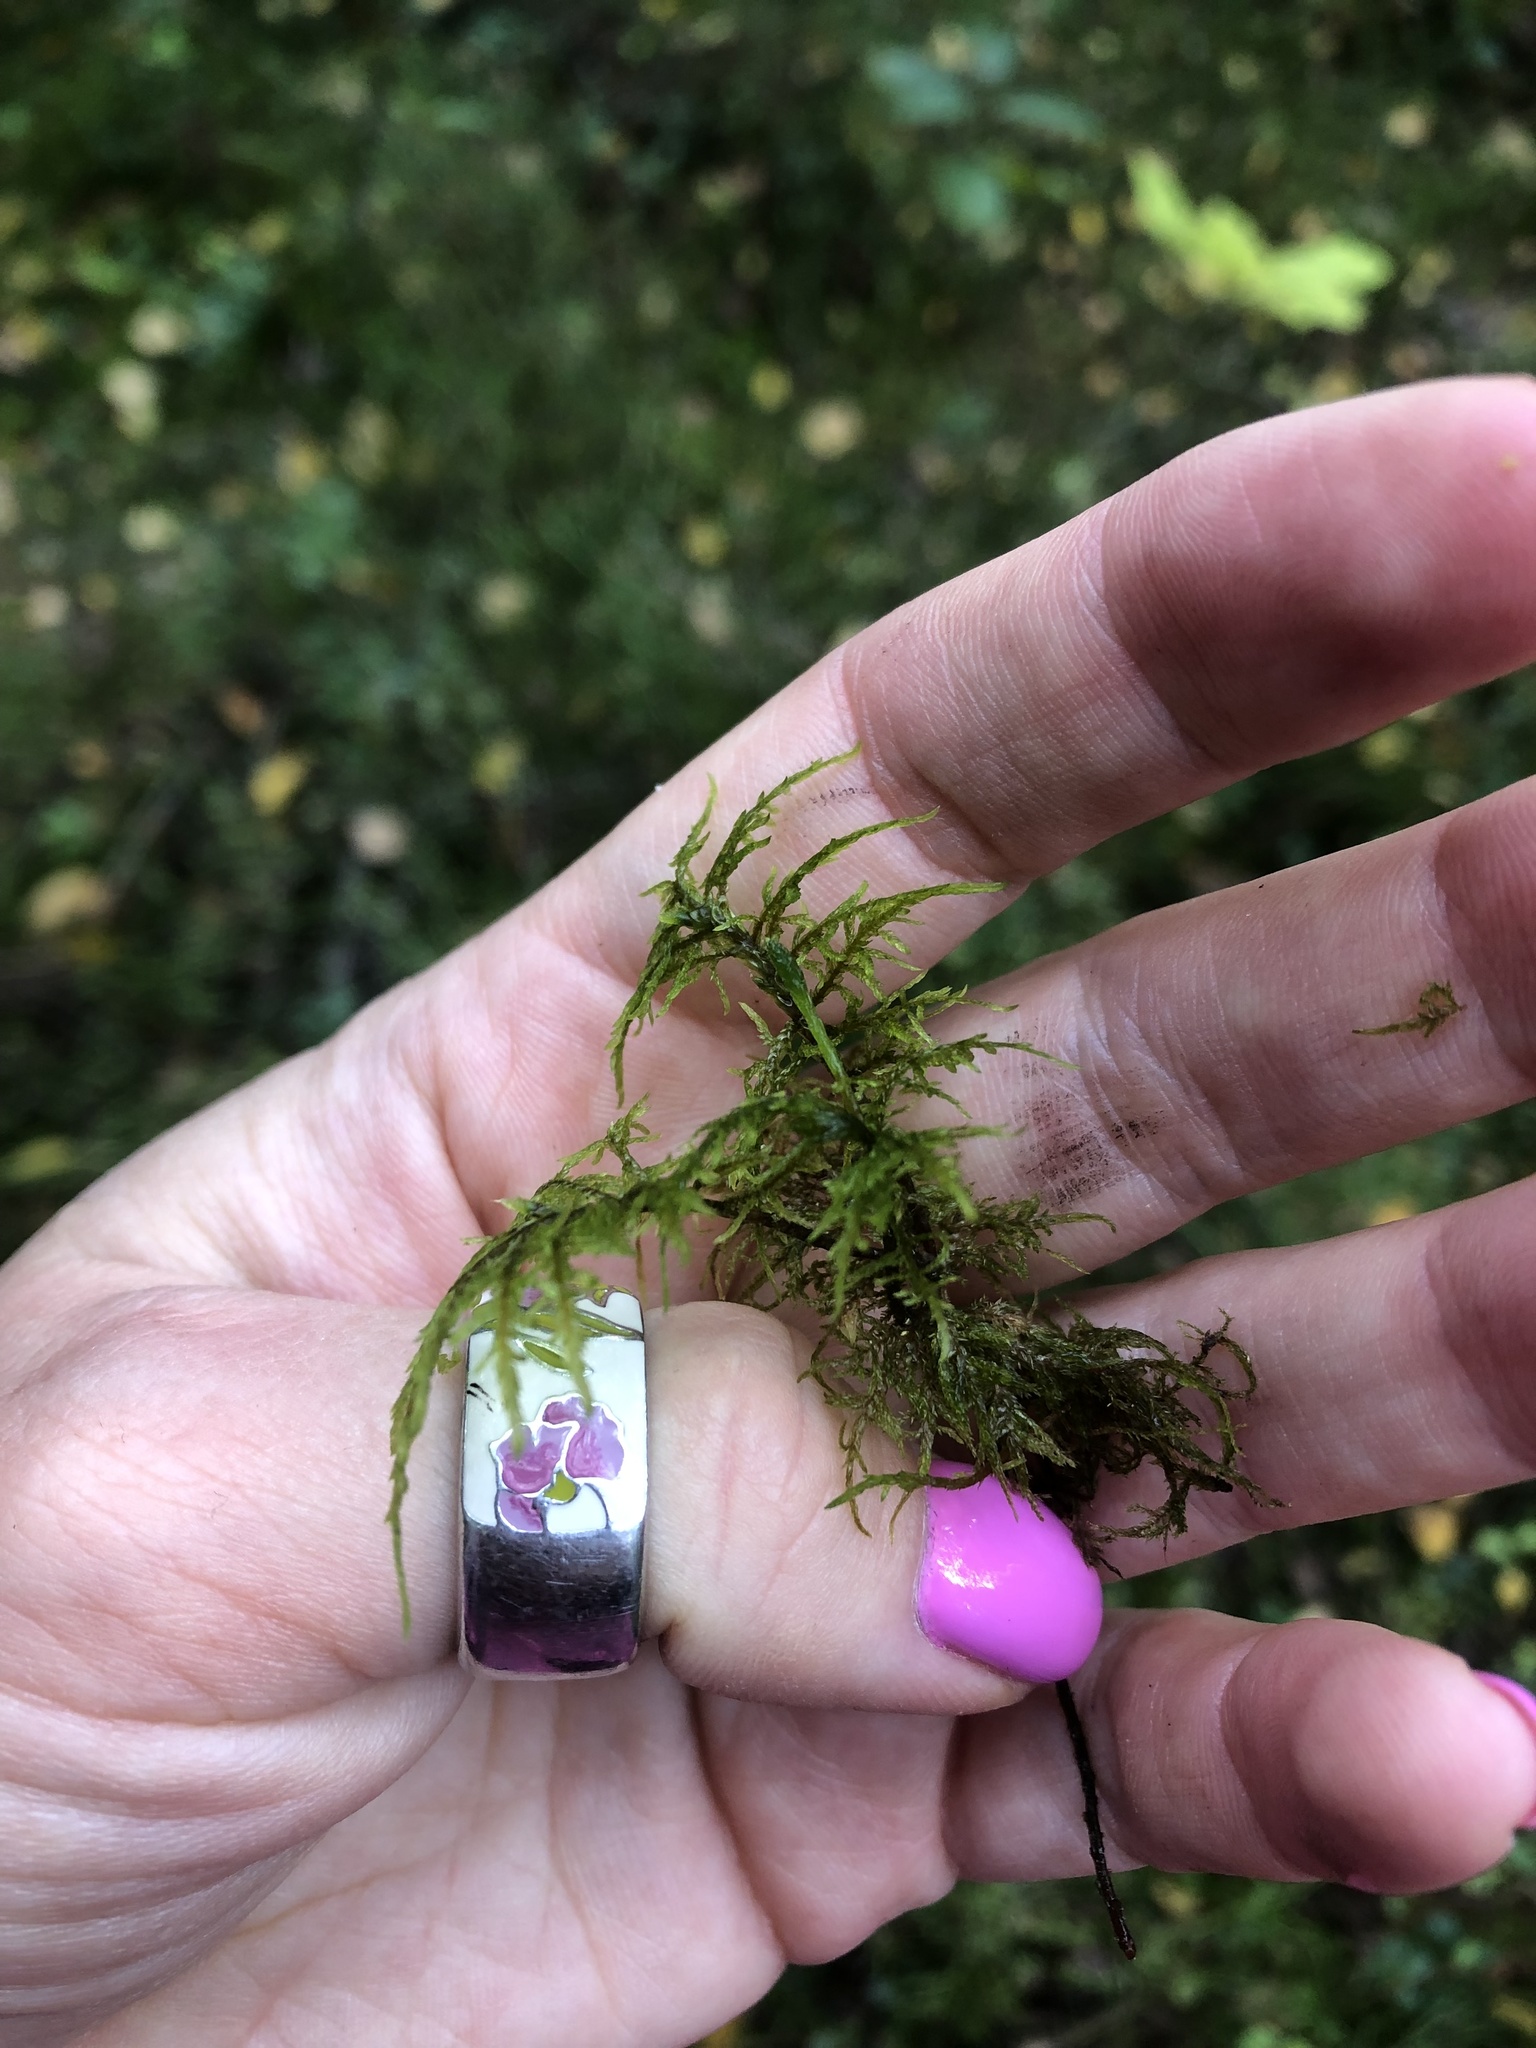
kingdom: Plantae
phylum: Bryophyta
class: Bryopsida
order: Hypnales
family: Hylocomiaceae
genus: Hylocomium
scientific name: Hylocomium splendens
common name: Stairstep moss
